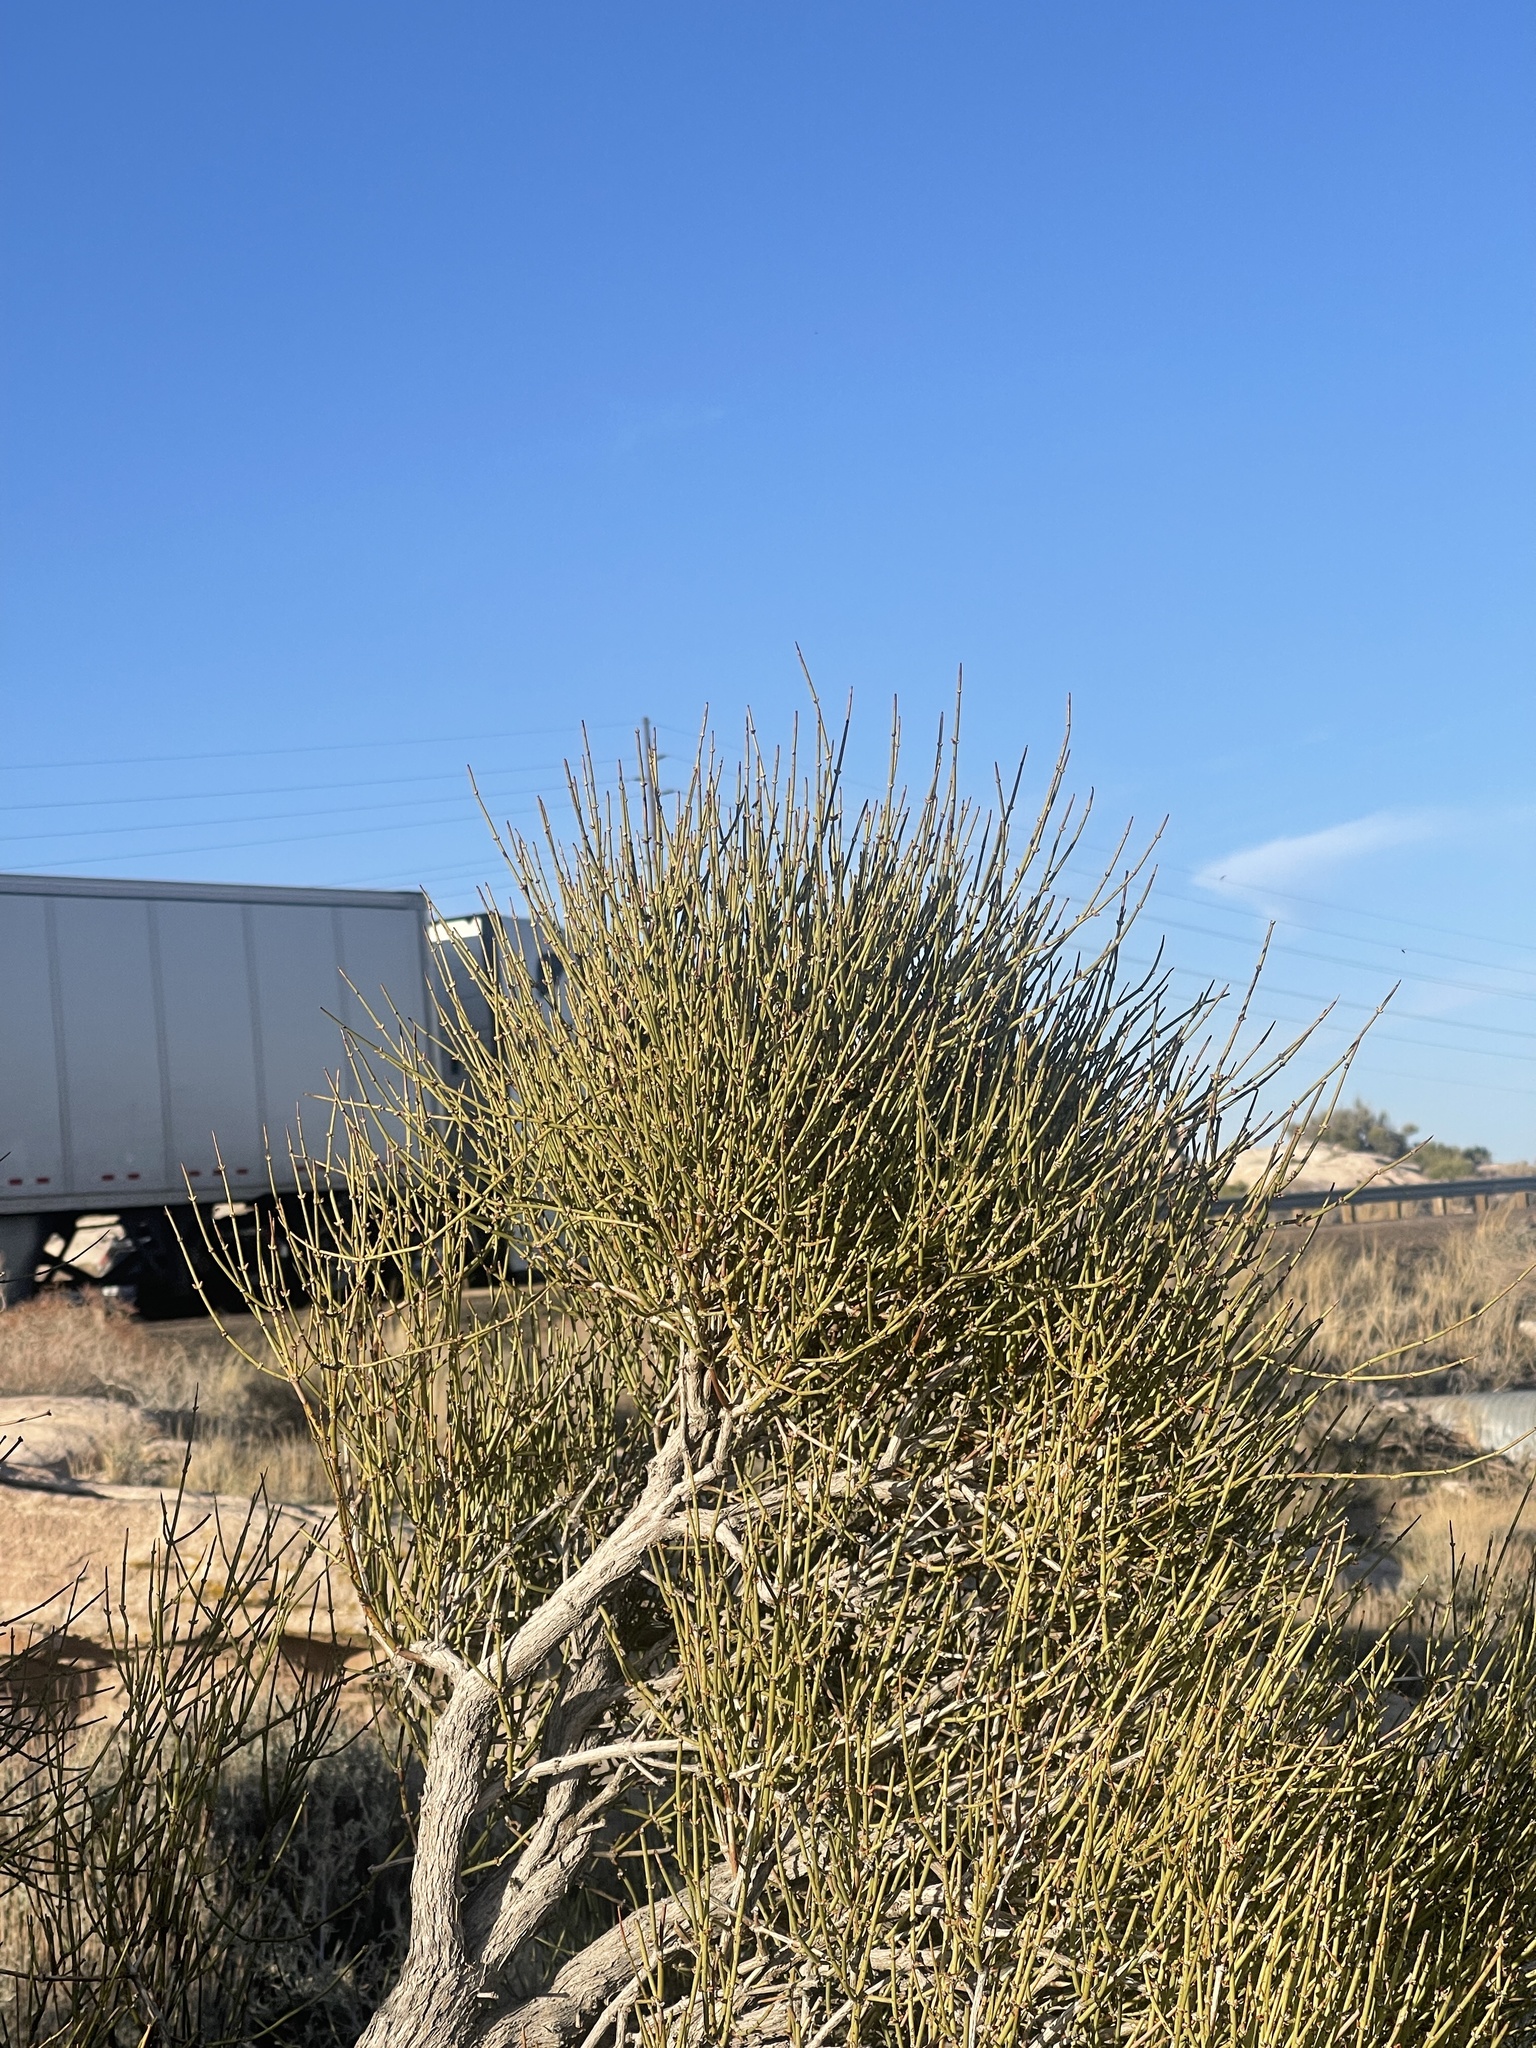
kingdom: Plantae
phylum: Tracheophyta
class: Gnetopsida
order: Ephedrales
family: Ephedraceae
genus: Ephedra
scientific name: Ephedra viridis
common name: Green ephedra
